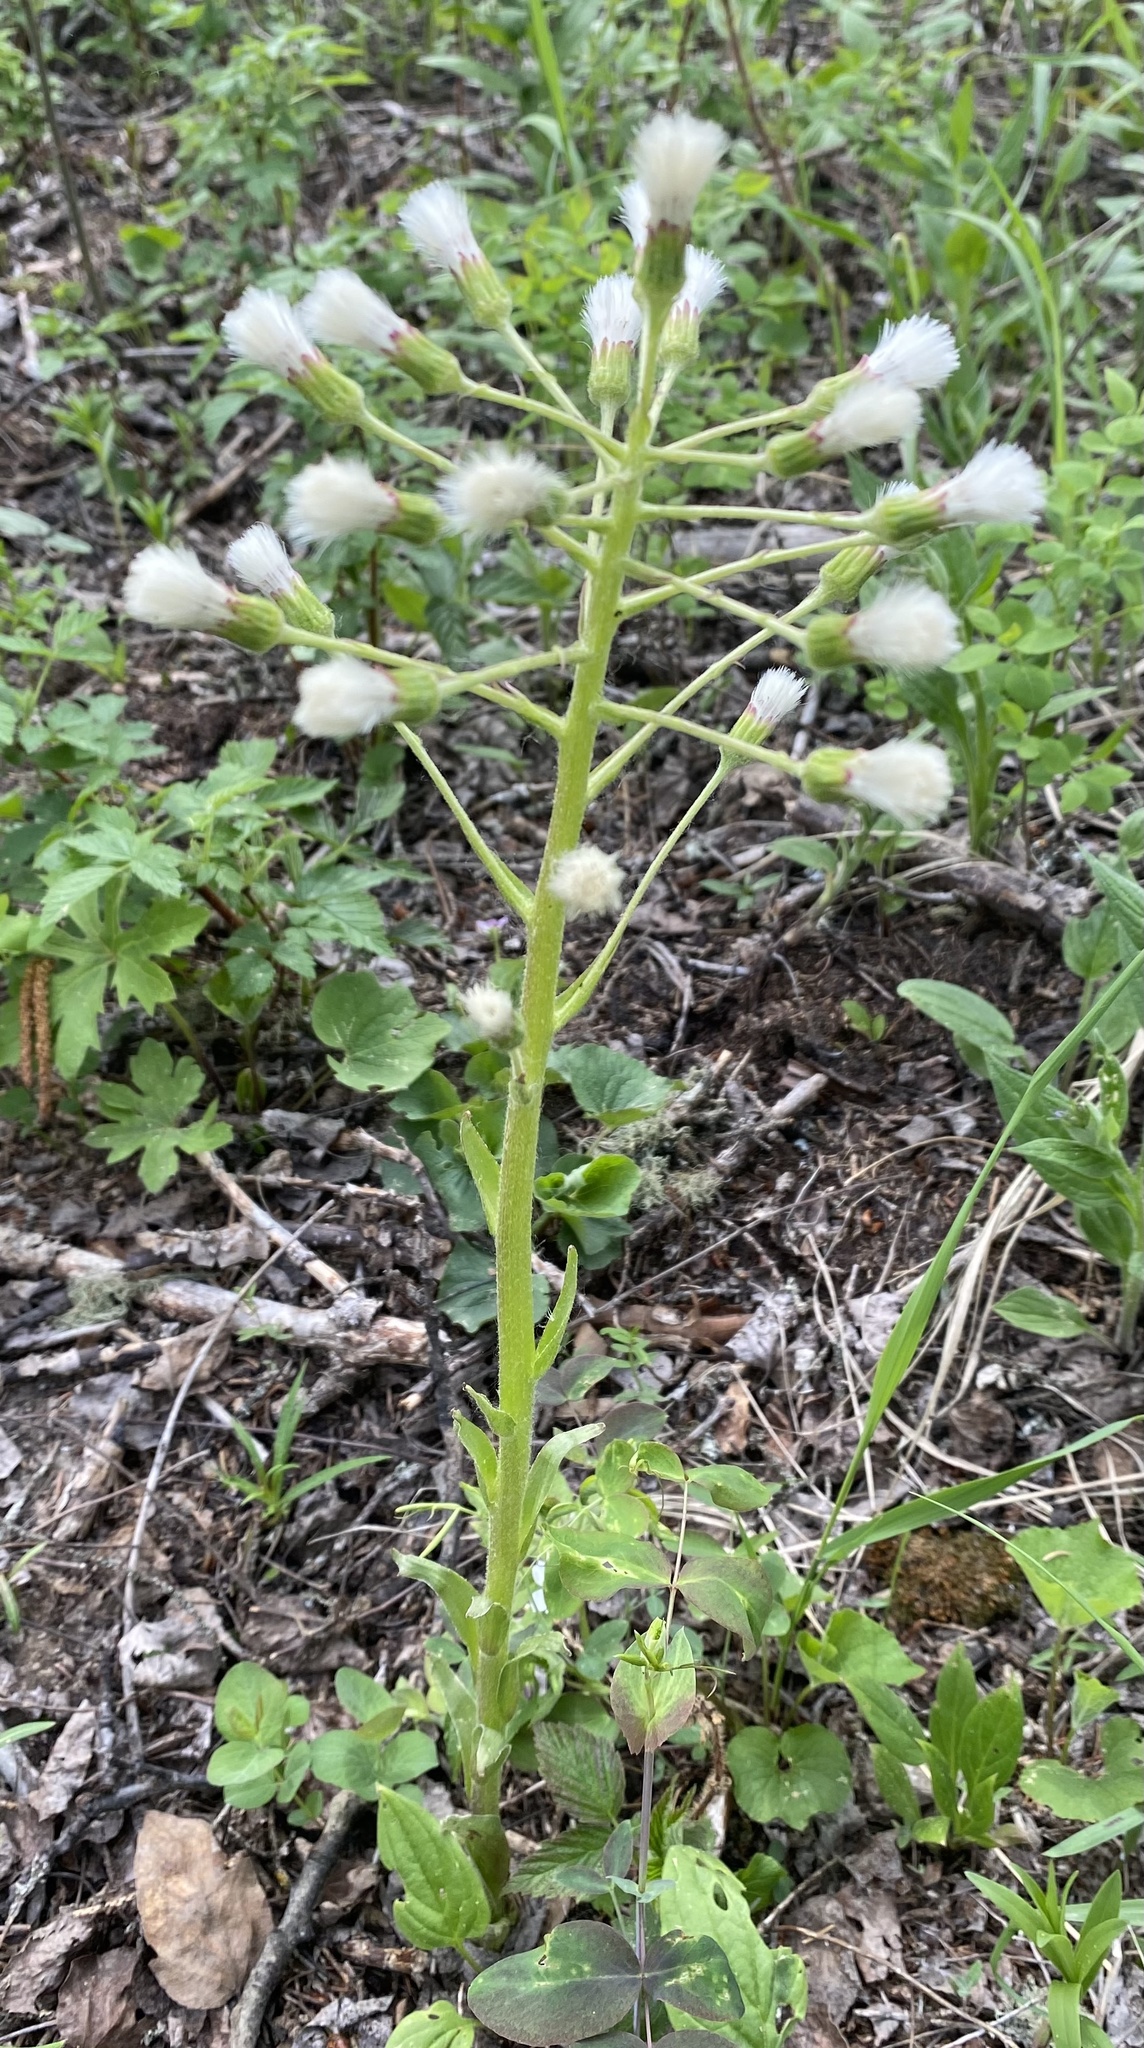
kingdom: Plantae
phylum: Tracheophyta
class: Magnoliopsida
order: Asterales
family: Asteraceae
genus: Petasites
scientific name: Petasites frigidus
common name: Arctic butterbur
